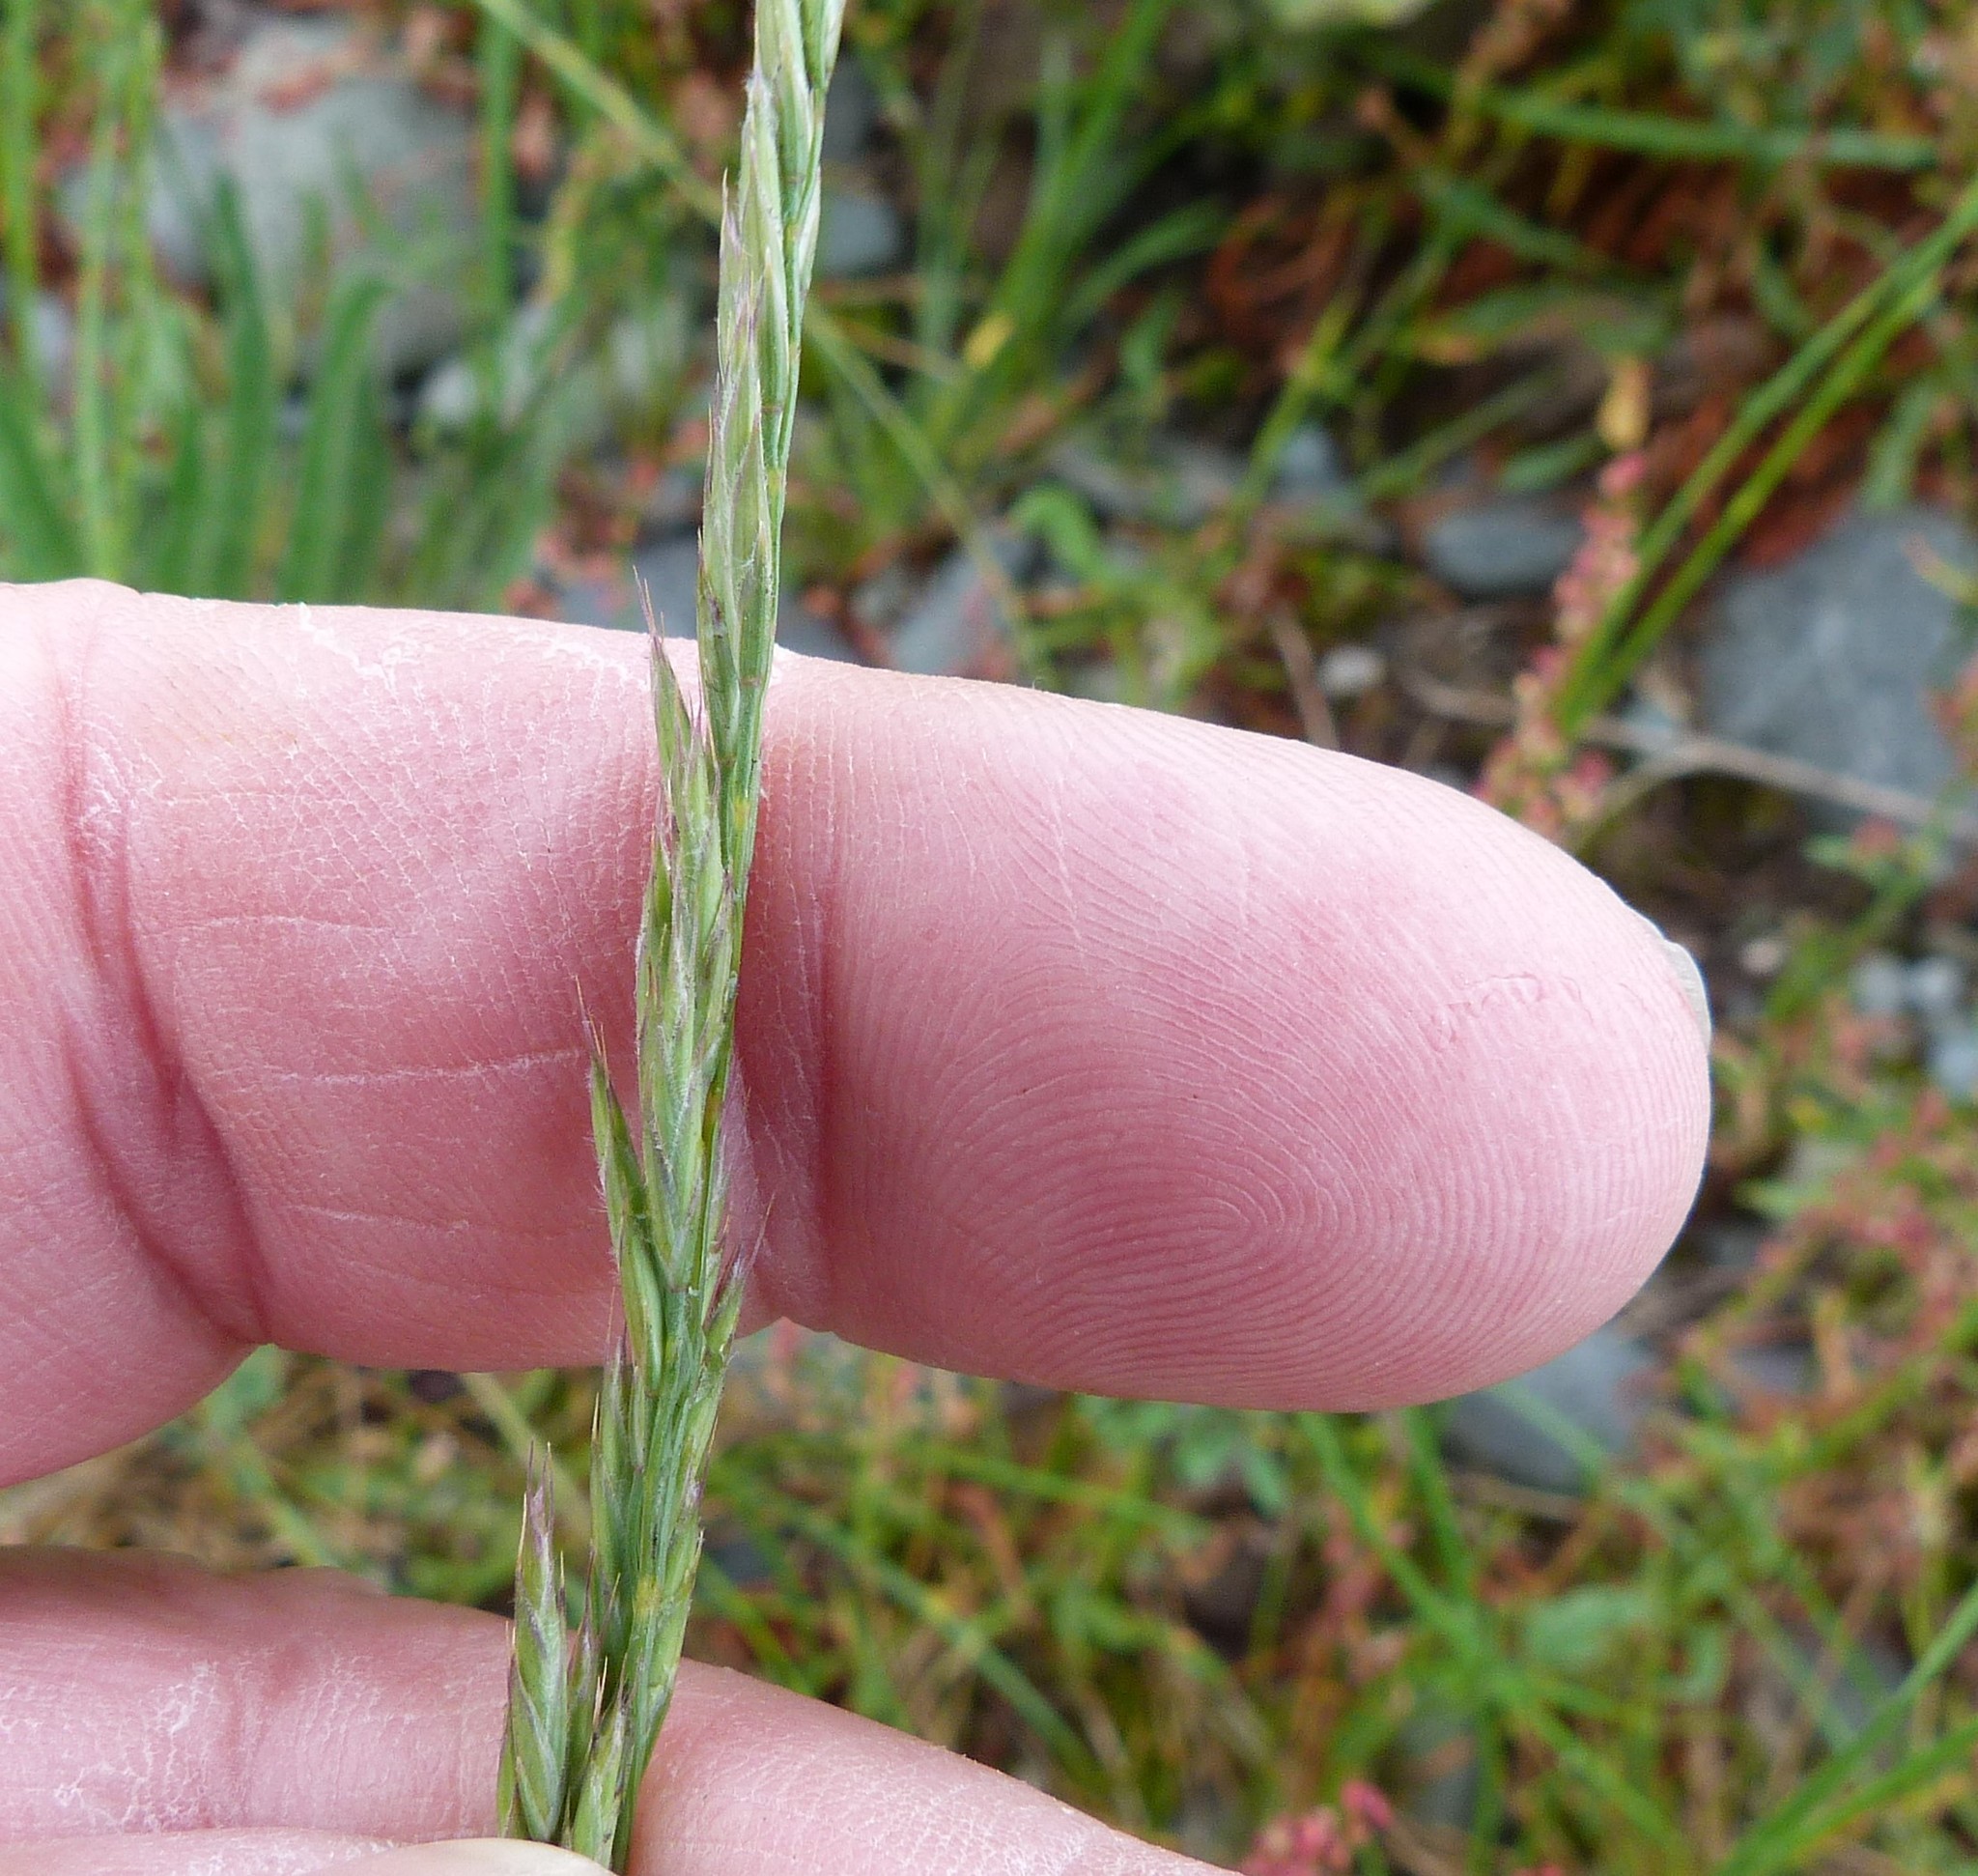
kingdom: Plantae
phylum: Tracheophyta
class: Liliopsida
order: Poales
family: Poaceae
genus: Festuca
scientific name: Festuca rubra
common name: Red fescue
